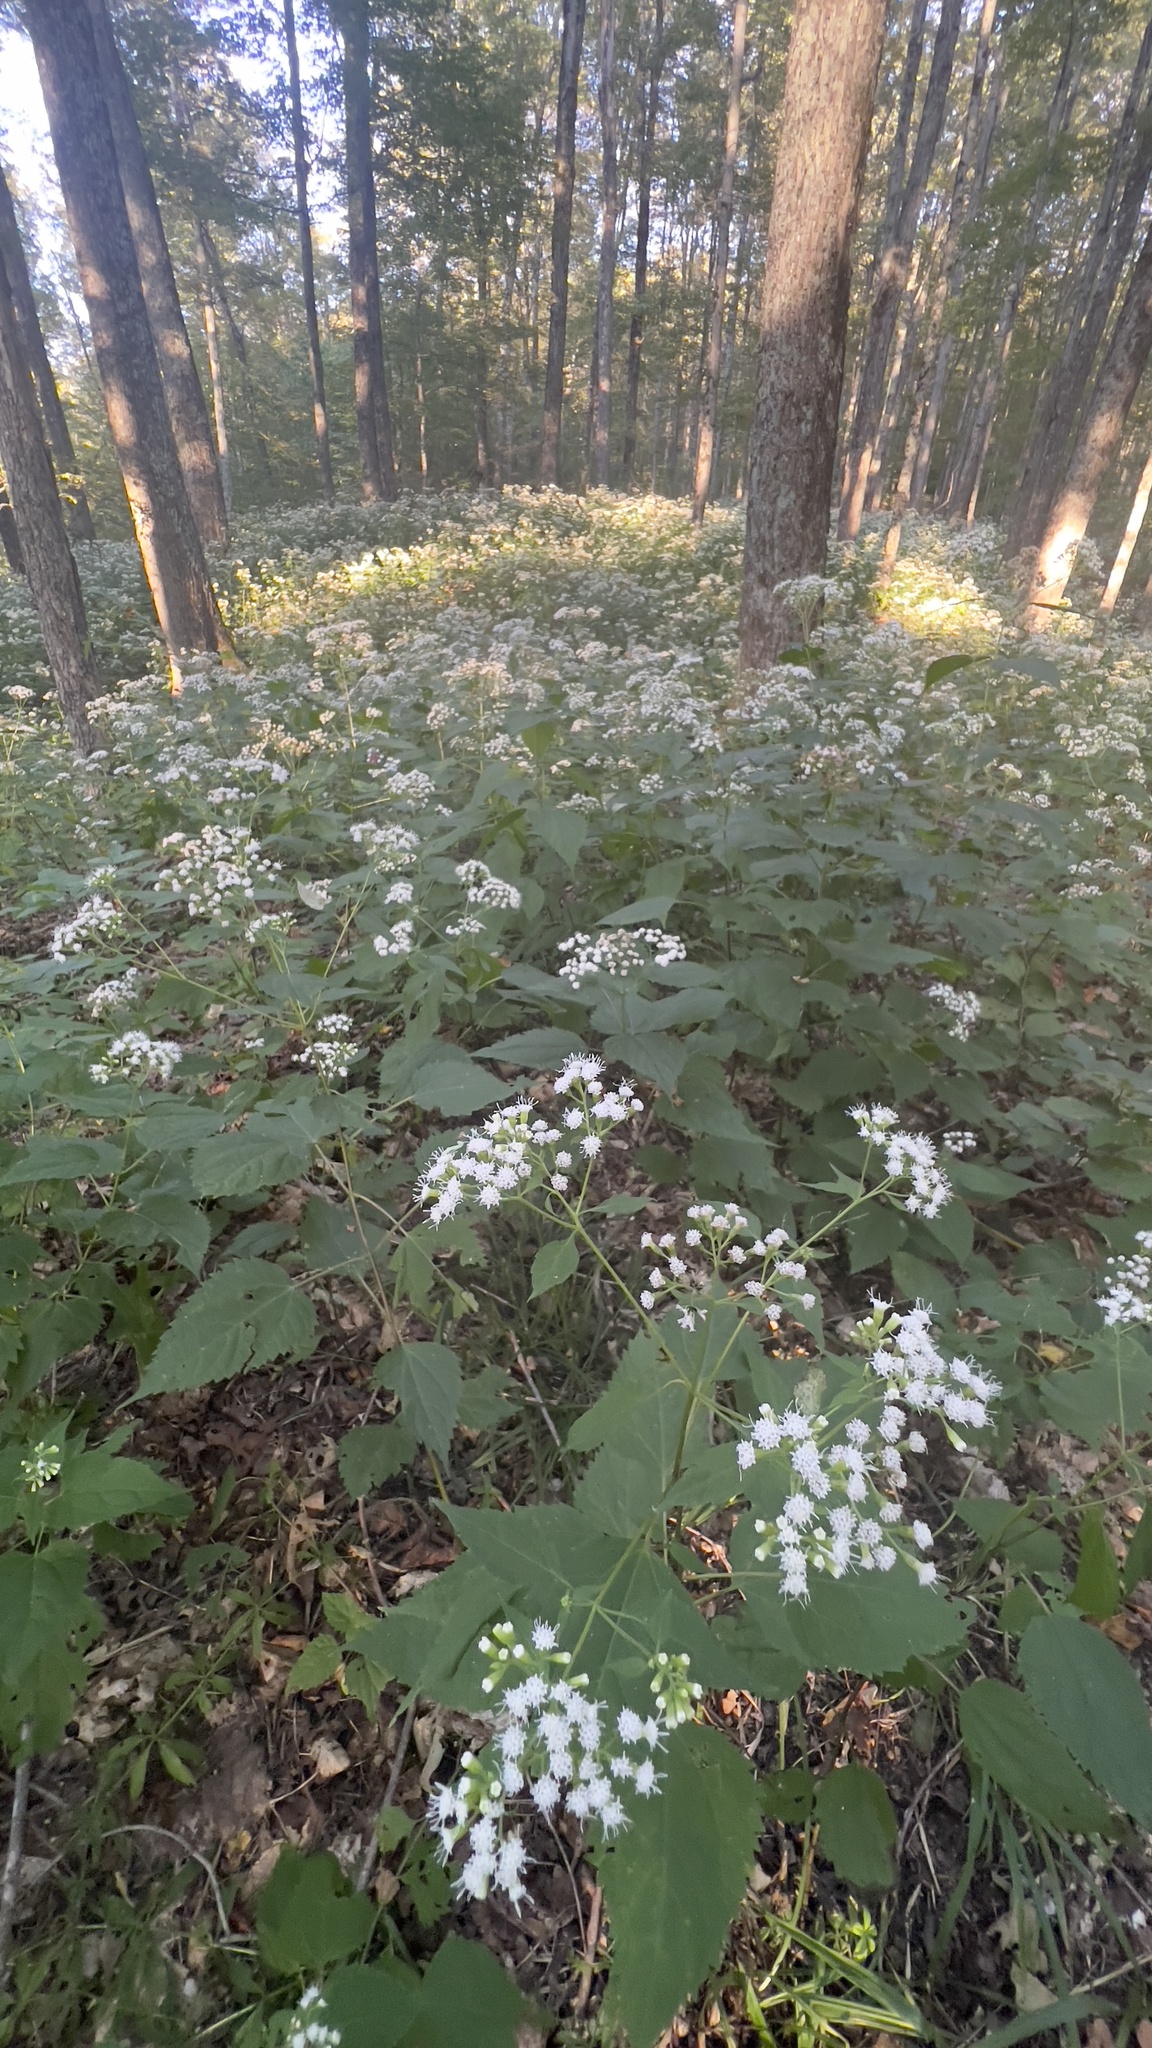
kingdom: Plantae
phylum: Tracheophyta
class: Magnoliopsida
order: Asterales
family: Asteraceae
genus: Ageratina
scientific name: Ageratina altissima
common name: White snakeroot
